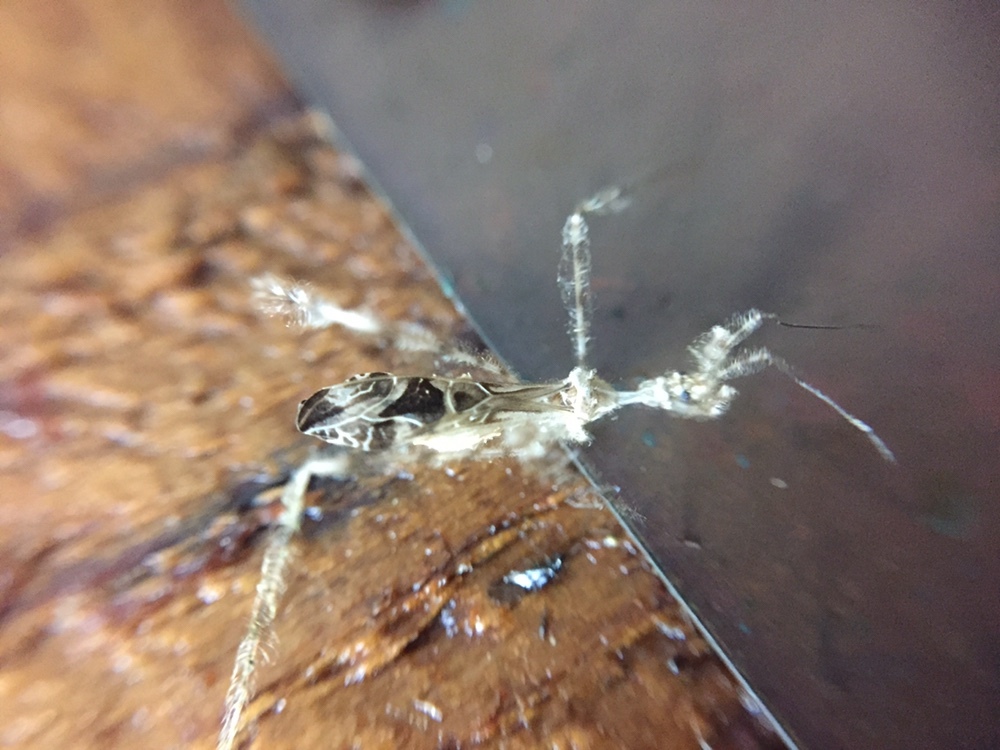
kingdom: Animalia
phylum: Arthropoda
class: Insecta
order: Hemiptera
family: Reduviidae
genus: Stenolemus
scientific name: Stenolemus fraterculus
